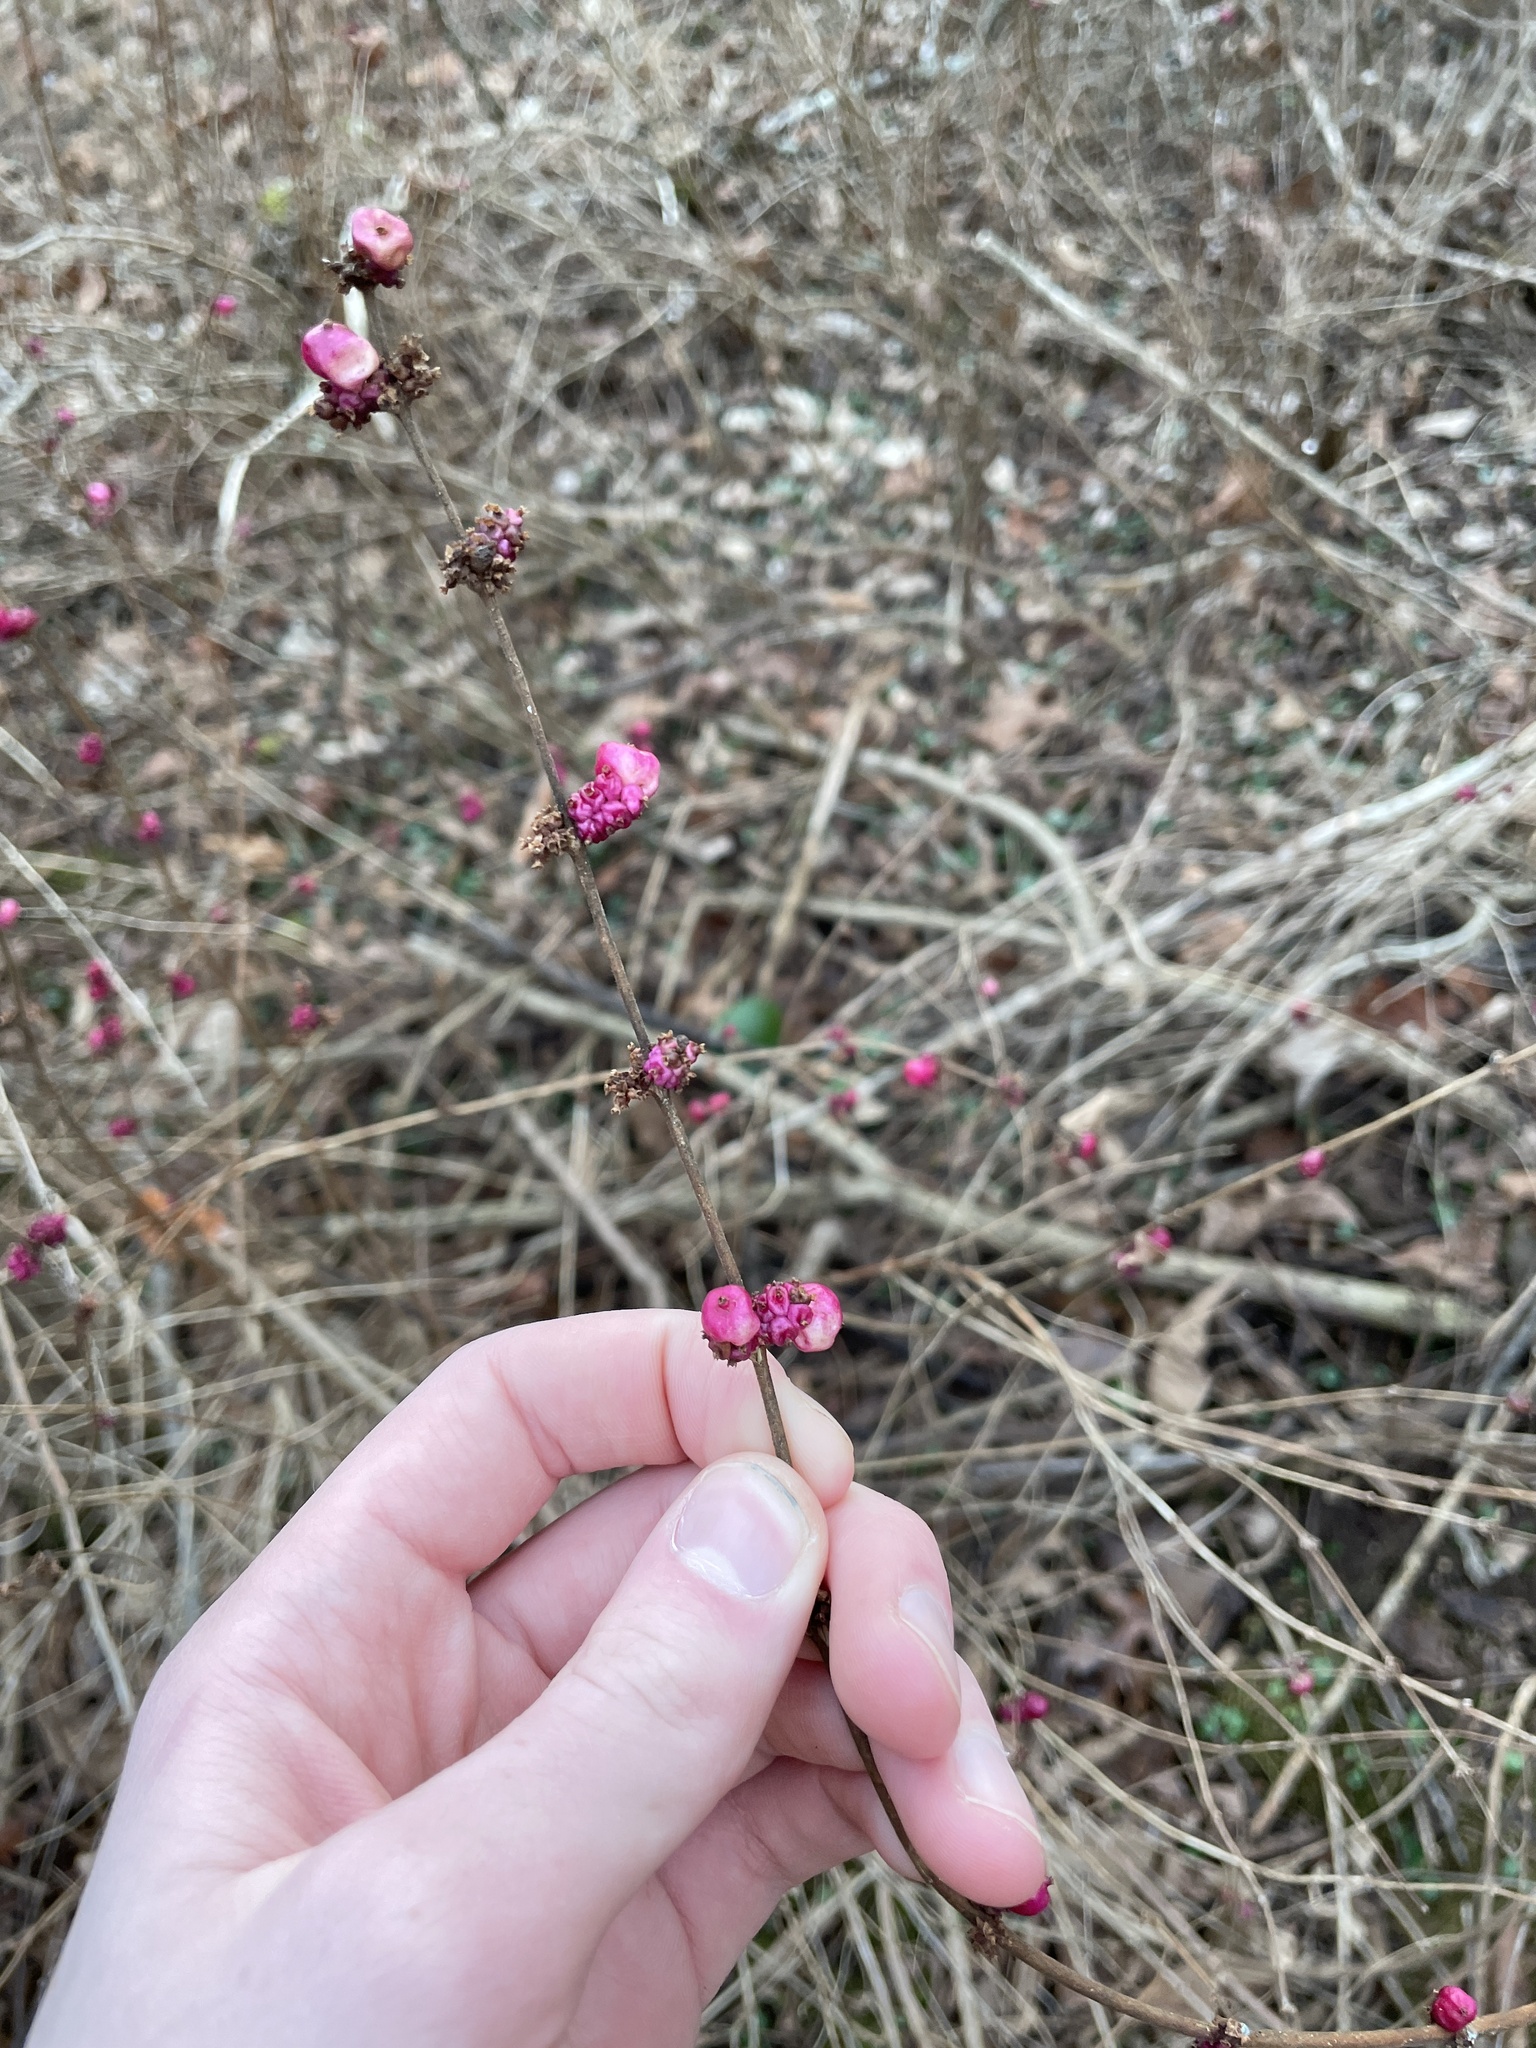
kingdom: Plantae
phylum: Tracheophyta
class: Magnoliopsida
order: Dipsacales
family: Caprifoliaceae
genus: Symphoricarpos
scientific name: Symphoricarpos orbiculatus
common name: Coralberry
